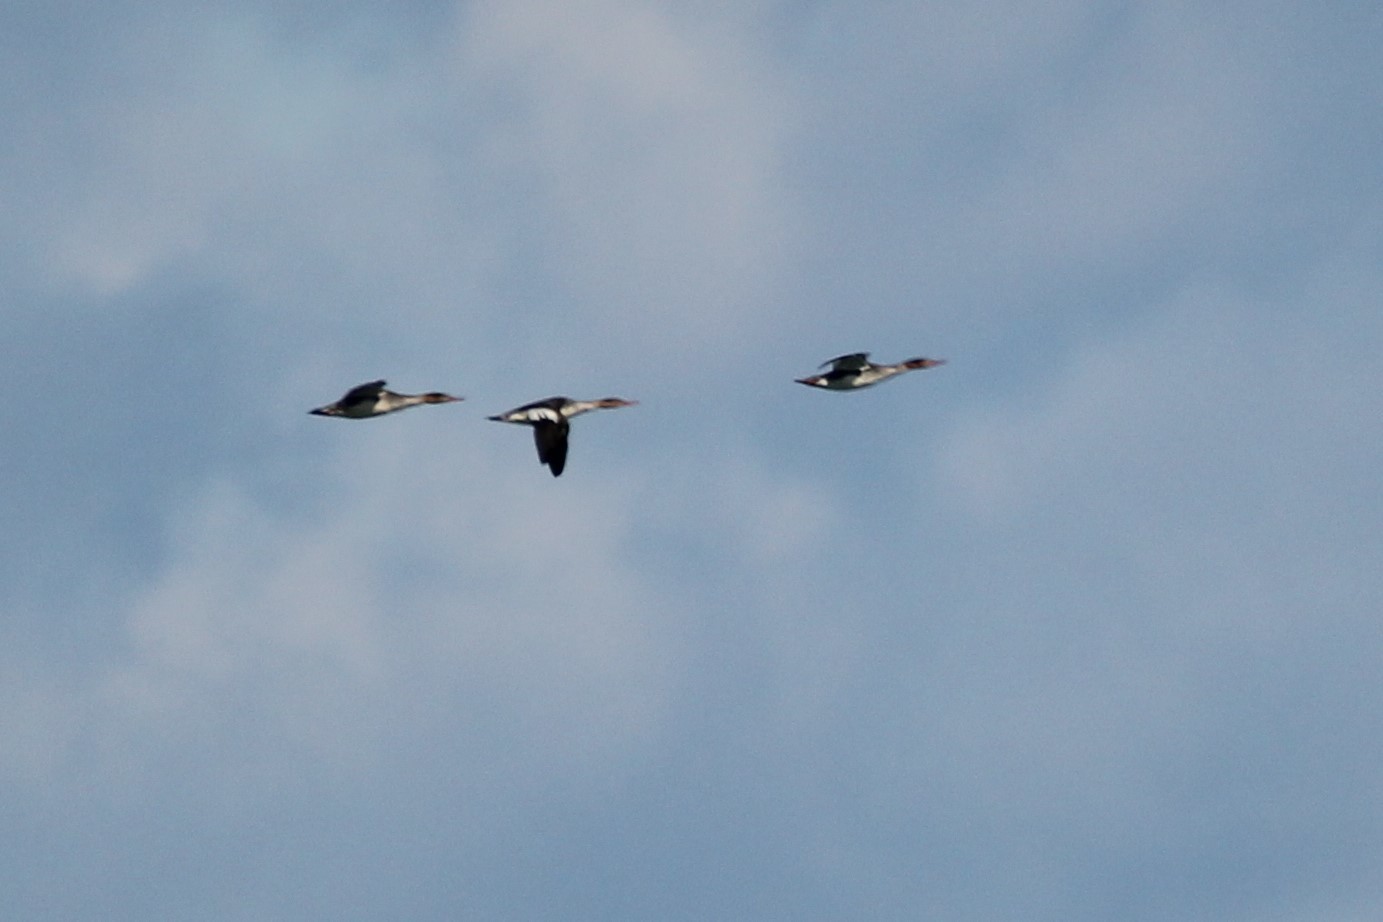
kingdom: Animalia
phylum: Chordata
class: Aves
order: Anseriformes
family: Anatidae
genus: Mergus
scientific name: Mergus serrator
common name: Red-breasted merganser
